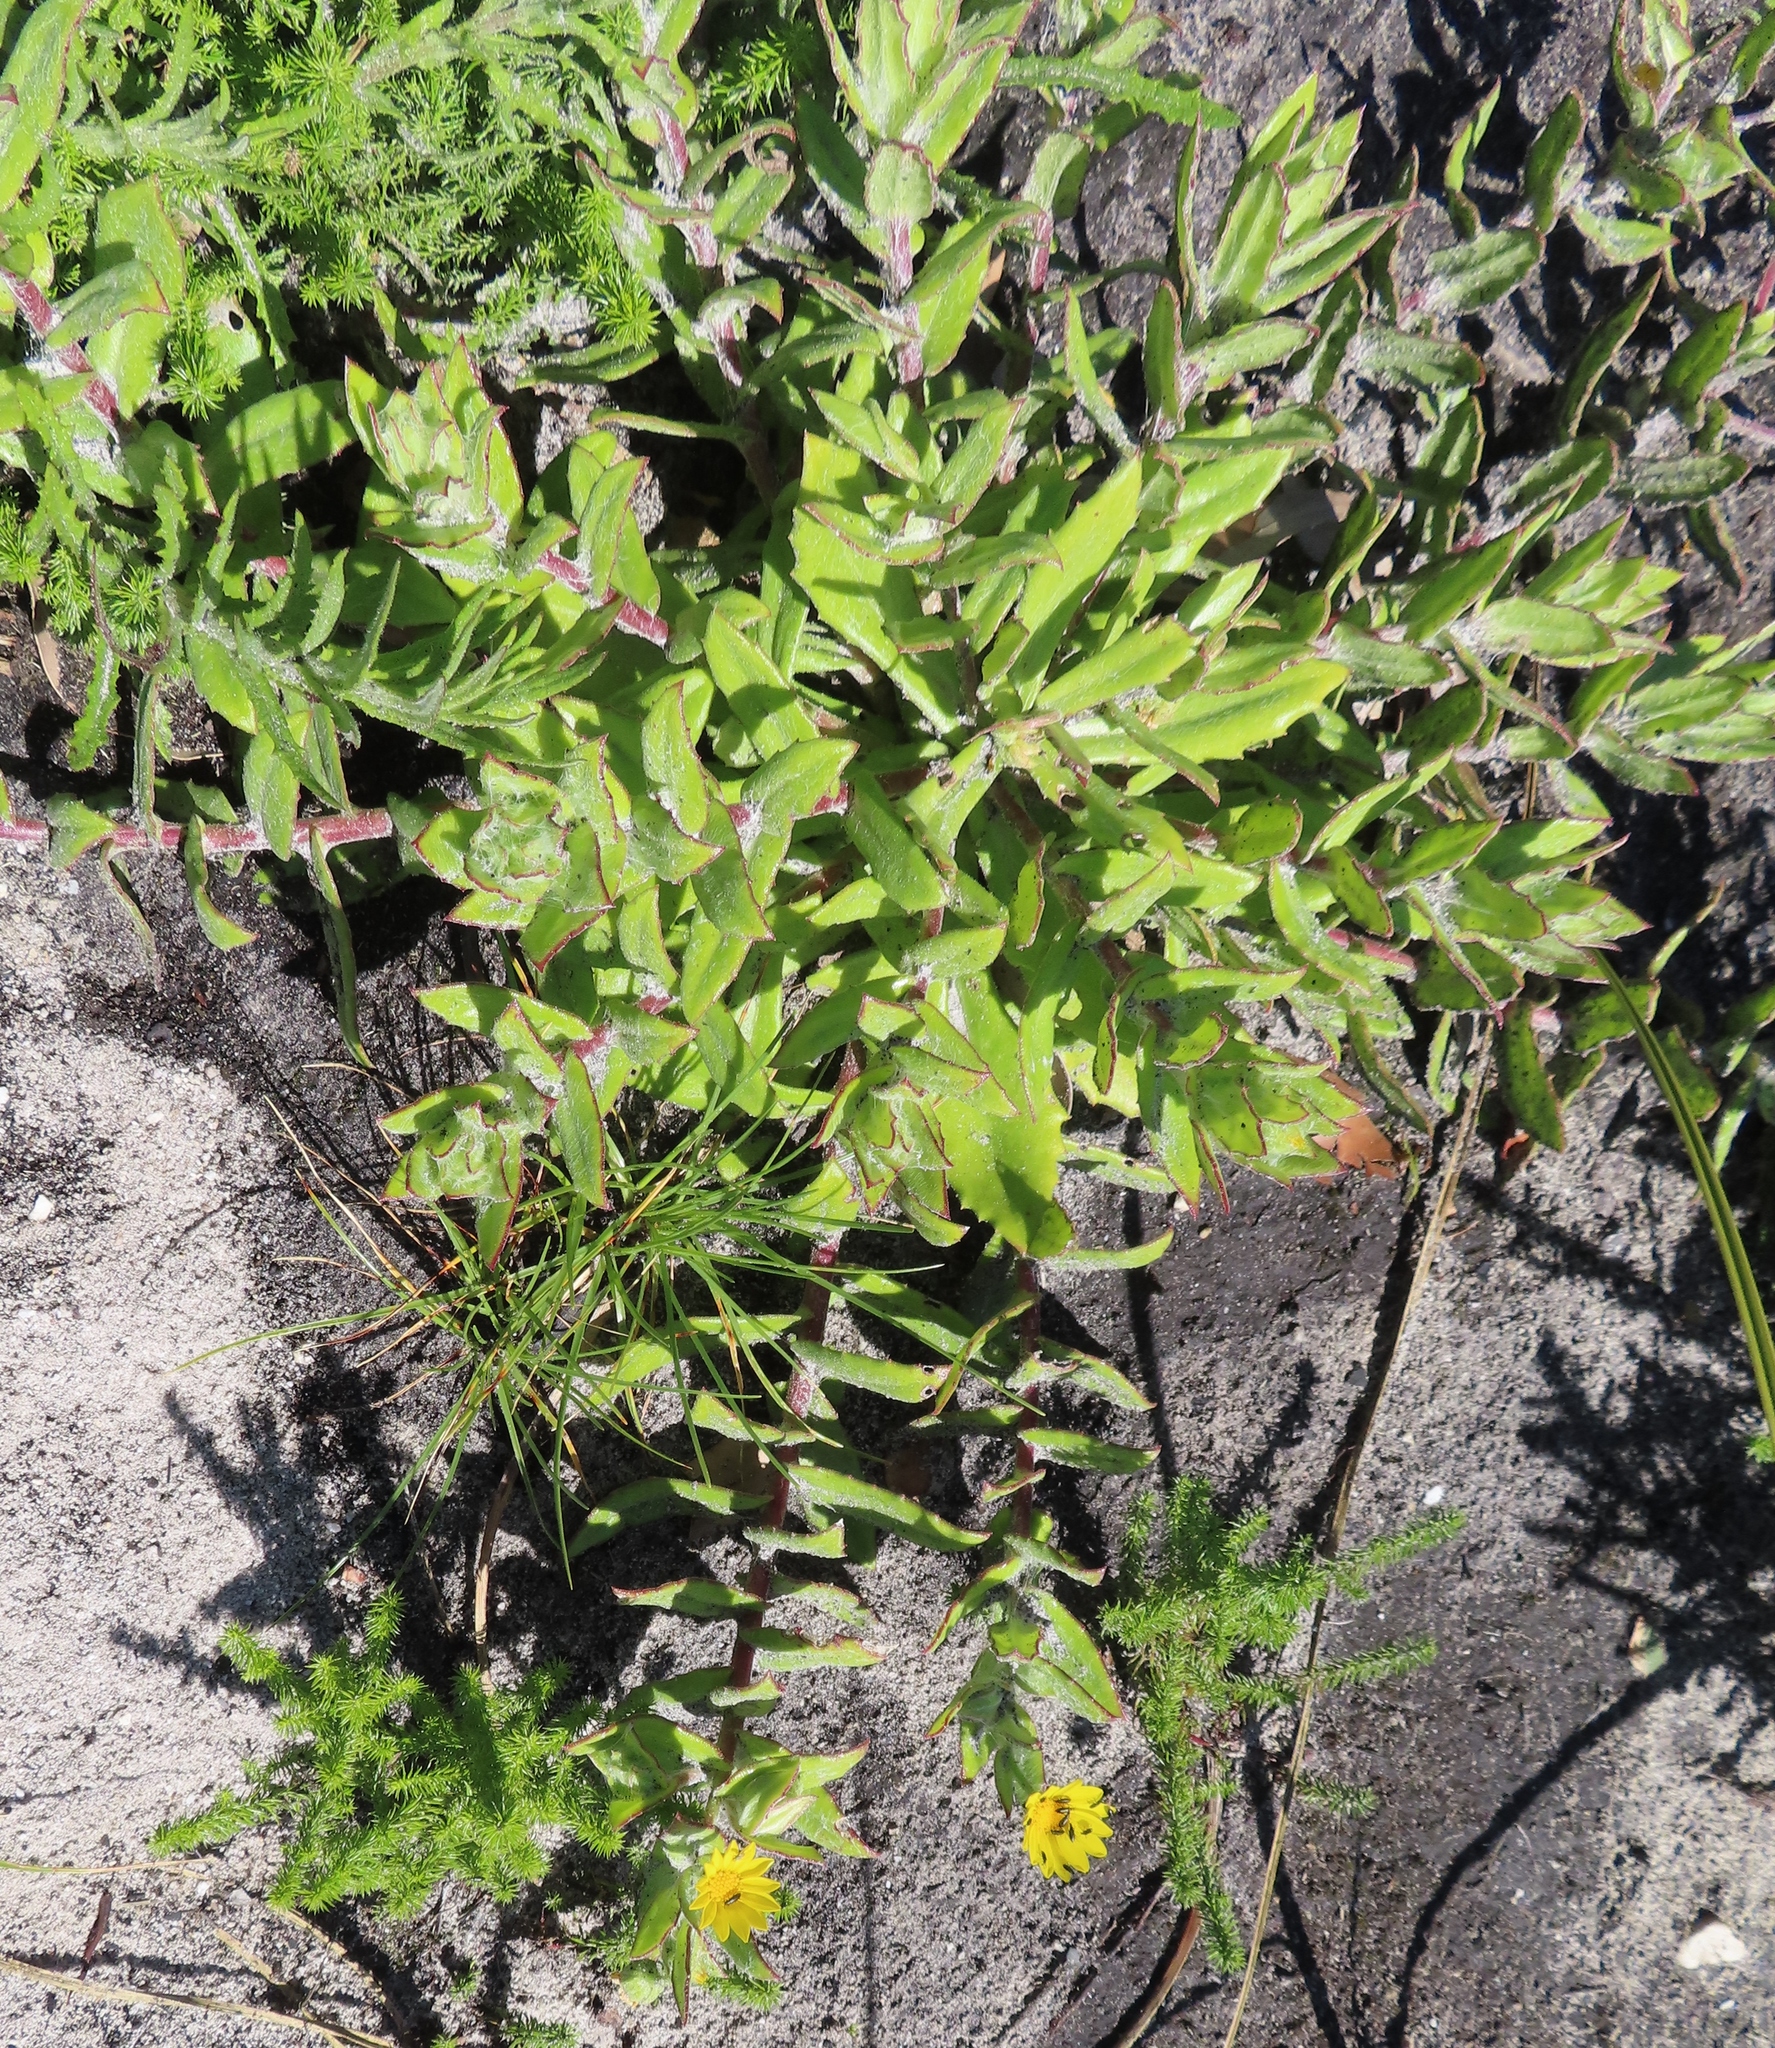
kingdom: Plantae
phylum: Tracheophyta
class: Magnoliopsida
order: Asterales
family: Asteraceae
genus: Osteospermum
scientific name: Osteospermum ilicifolium
